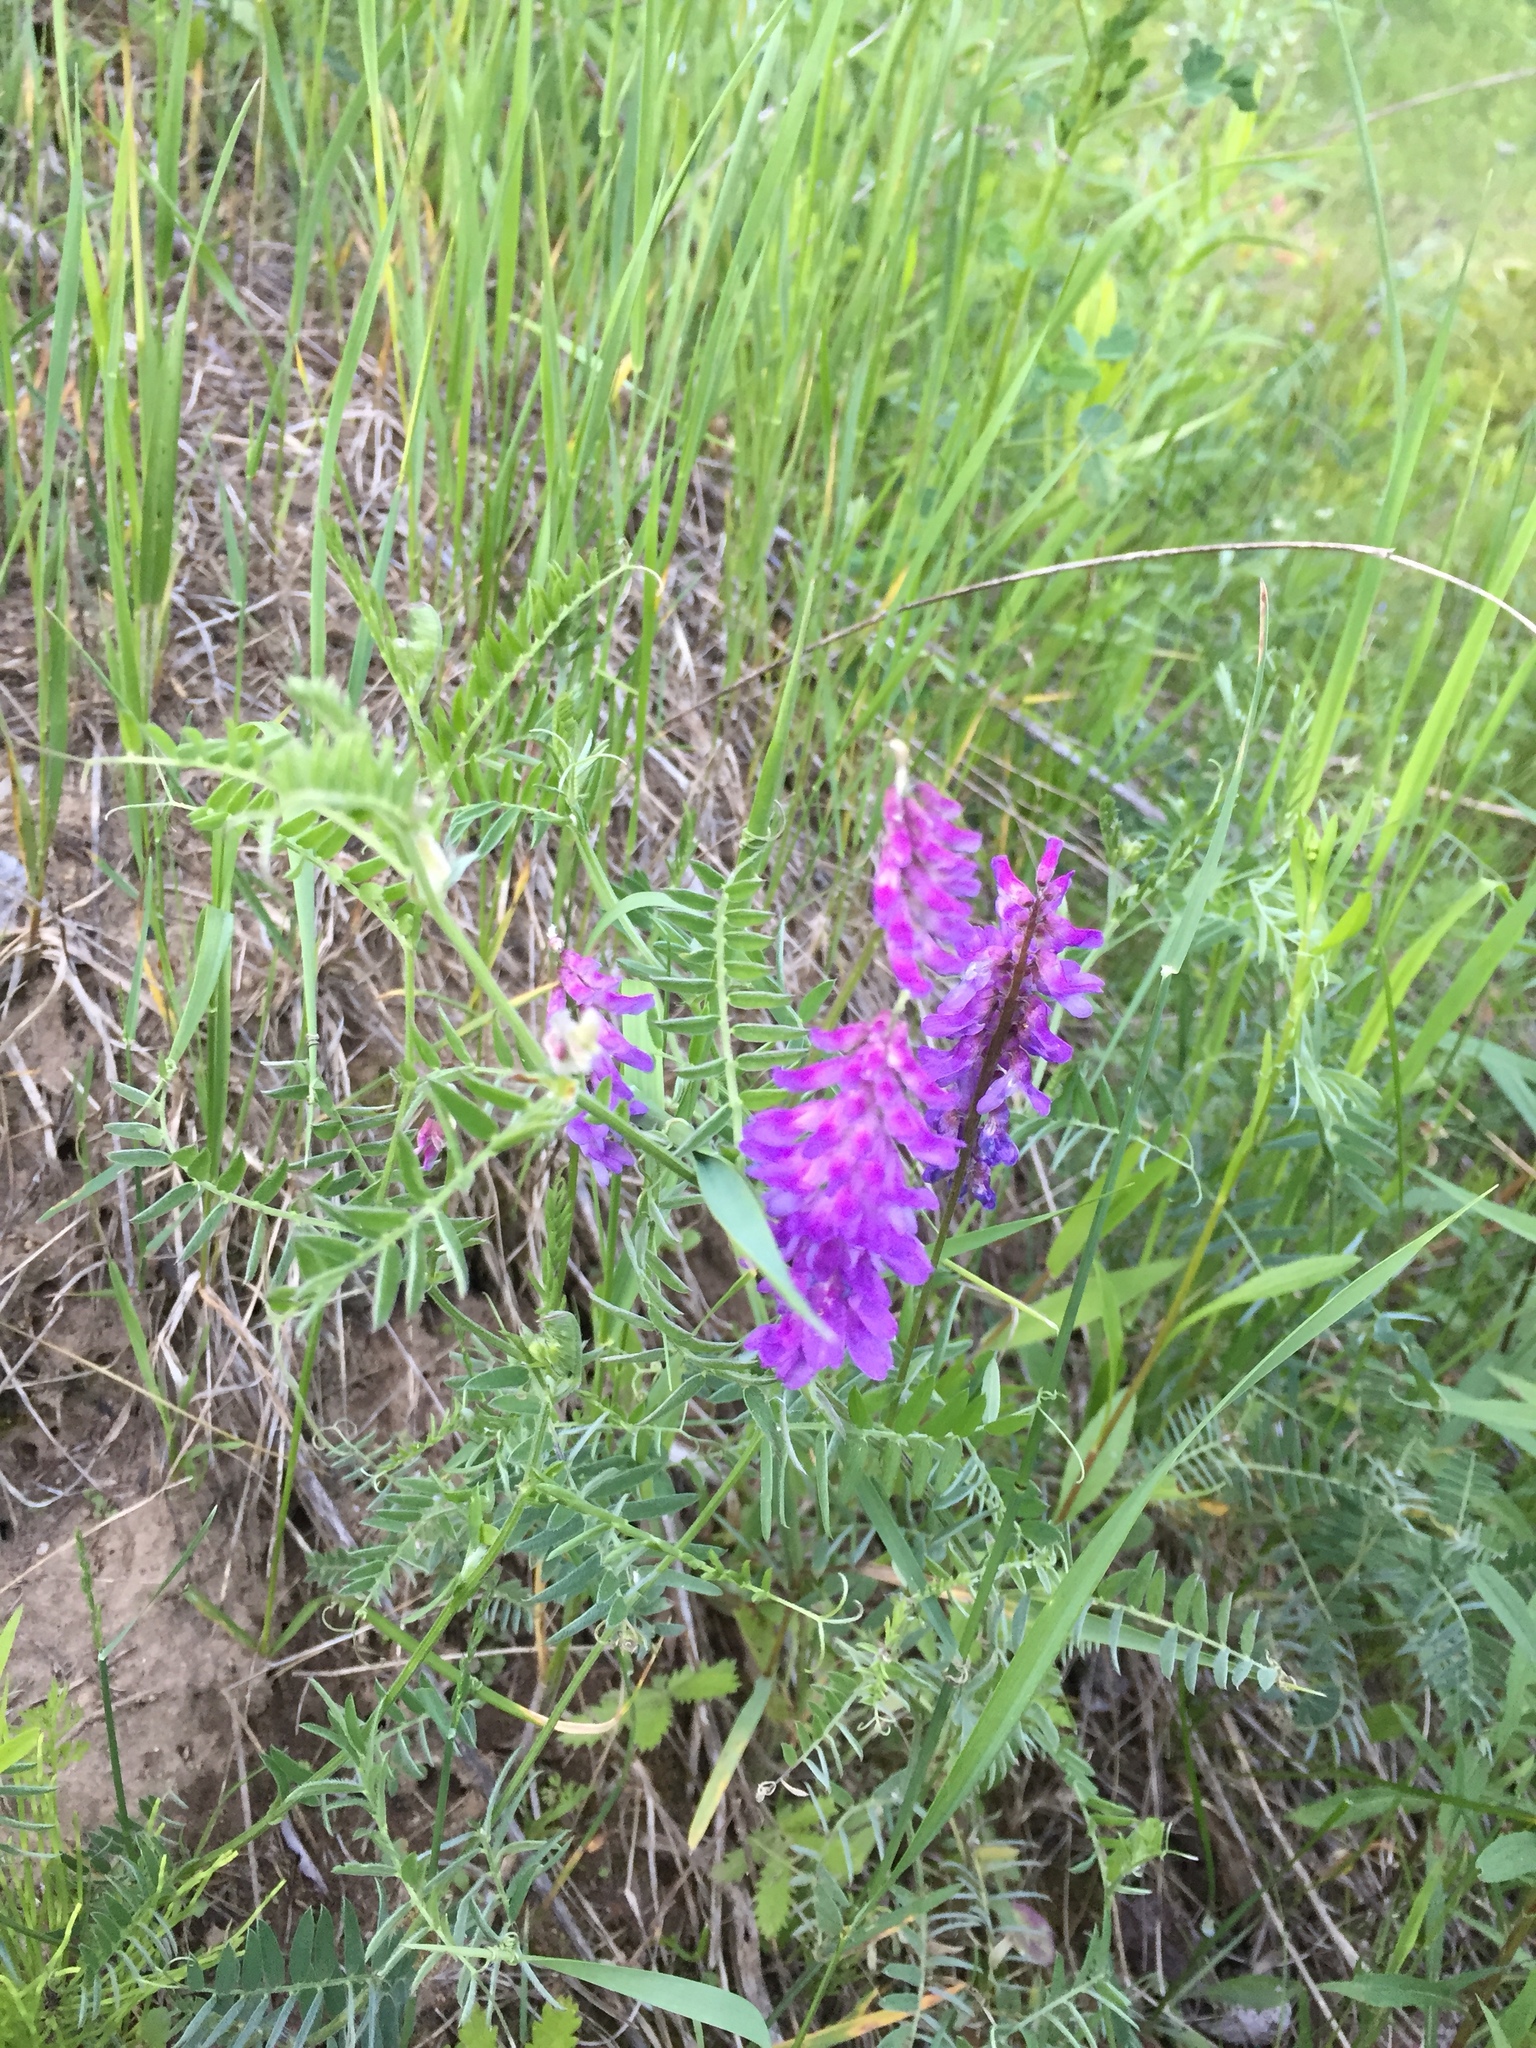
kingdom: Plantae
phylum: Tracheophyta
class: Magnoliopsida
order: Fabales
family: Fabaceae
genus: Vicia
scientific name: Vicia cracca
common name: Bird vetch
